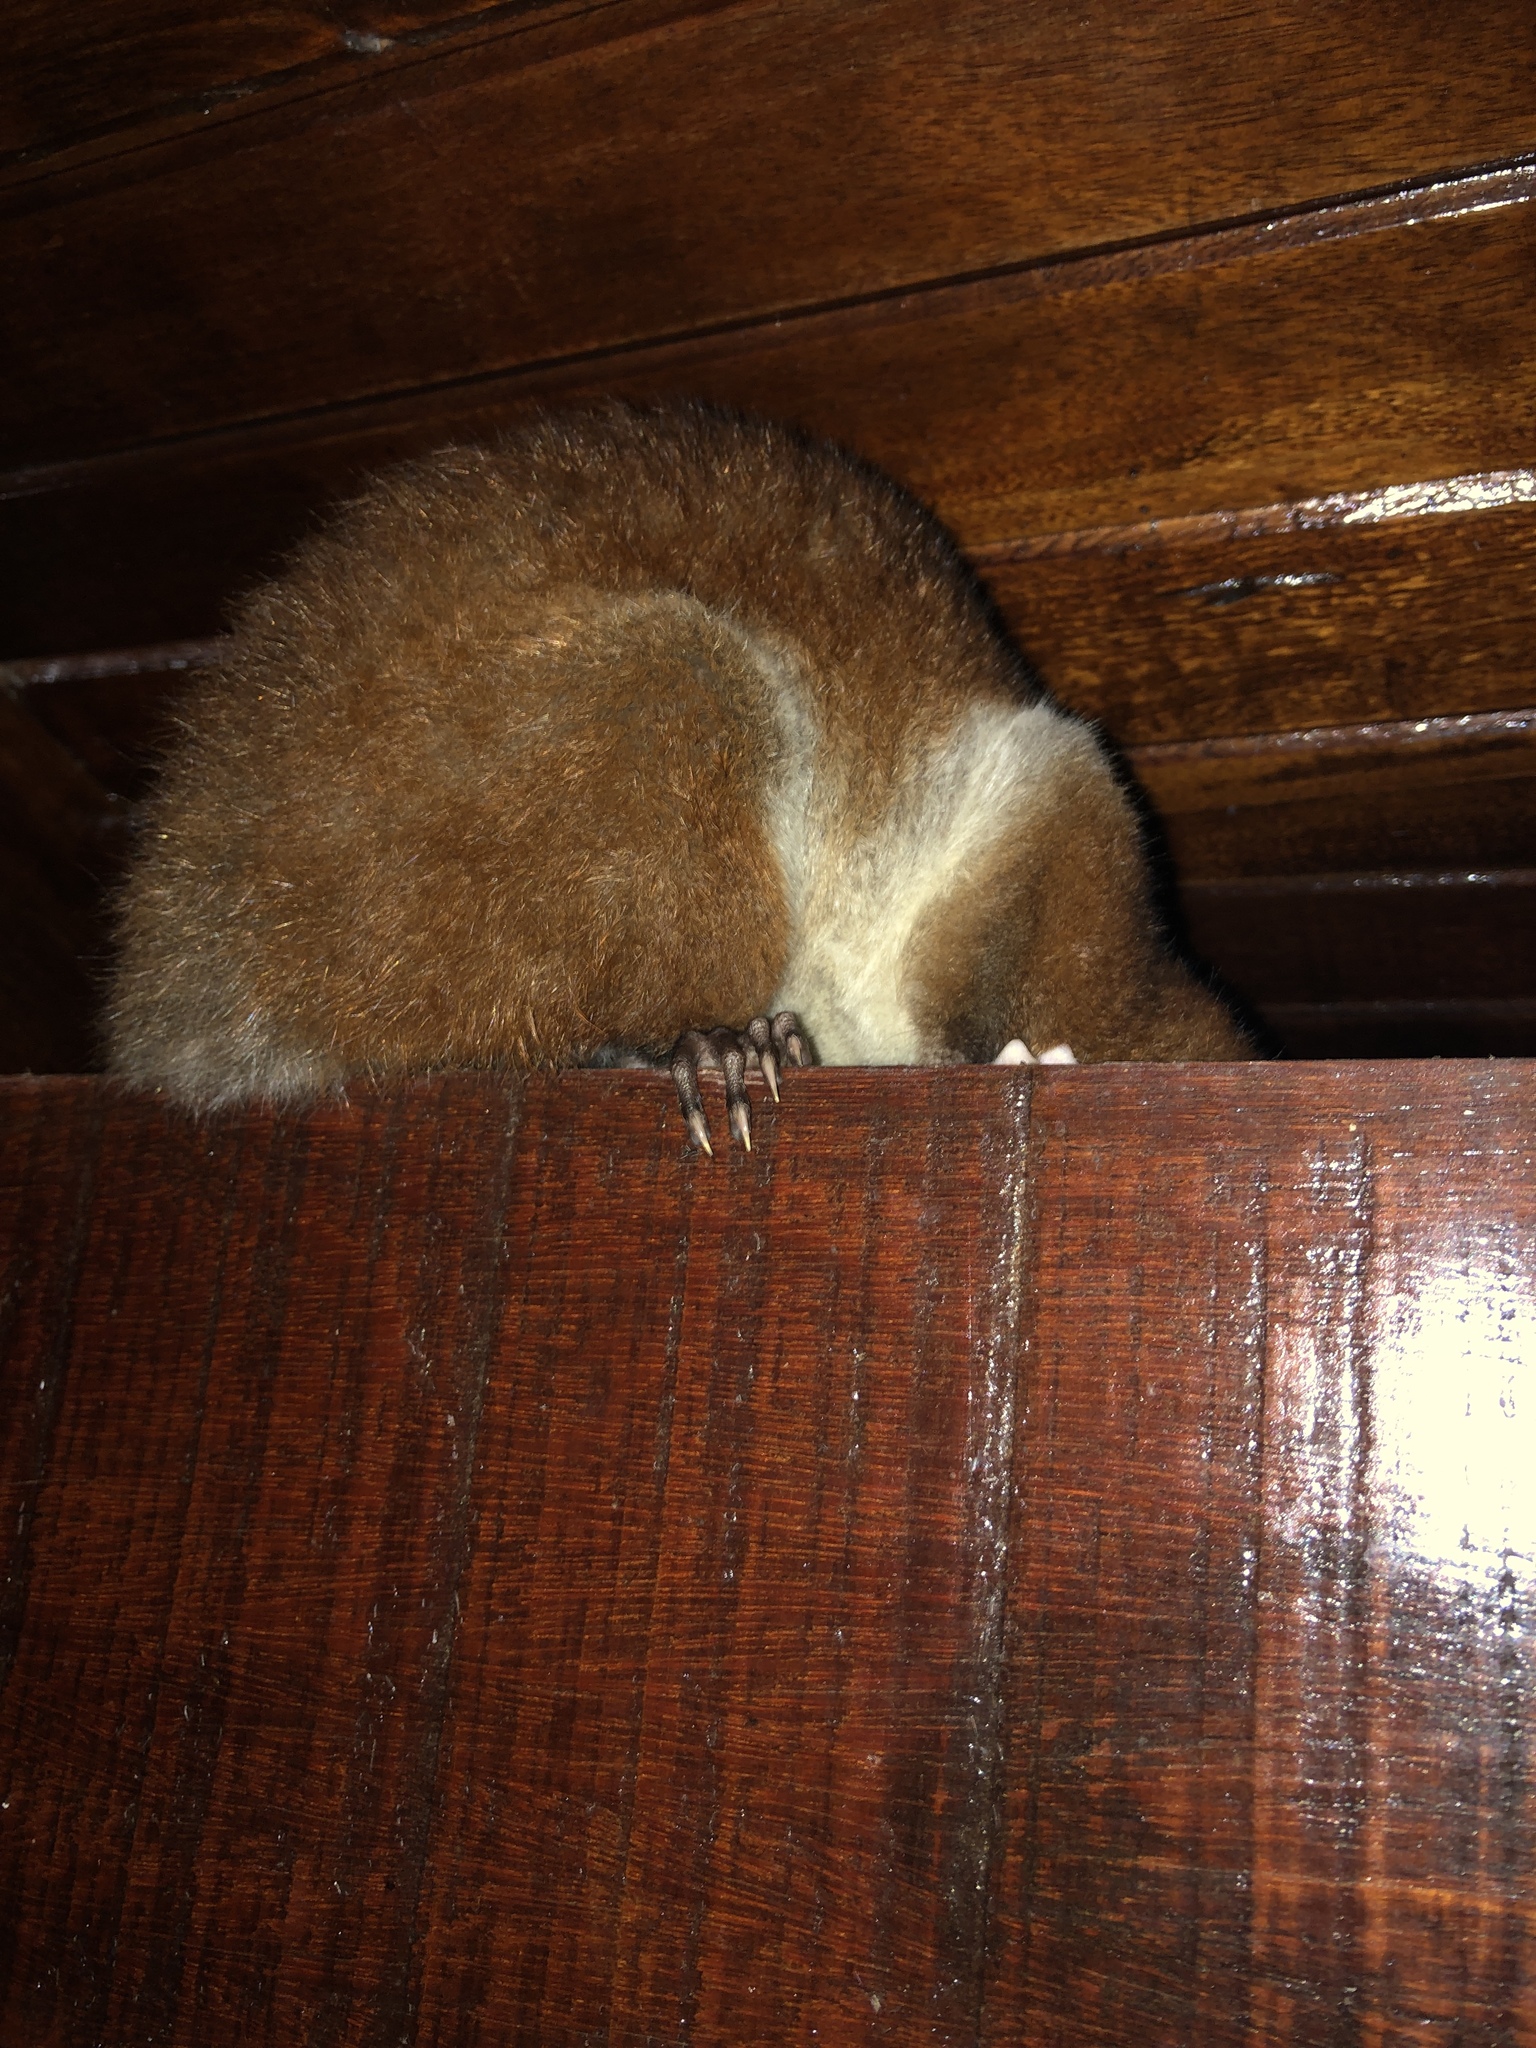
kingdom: Animalia
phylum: Chordata
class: Mammalia
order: Didelphimorphia
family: Didelphidae
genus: Caluromys
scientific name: Caluromys derbianus
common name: Derby's woolly opossum
